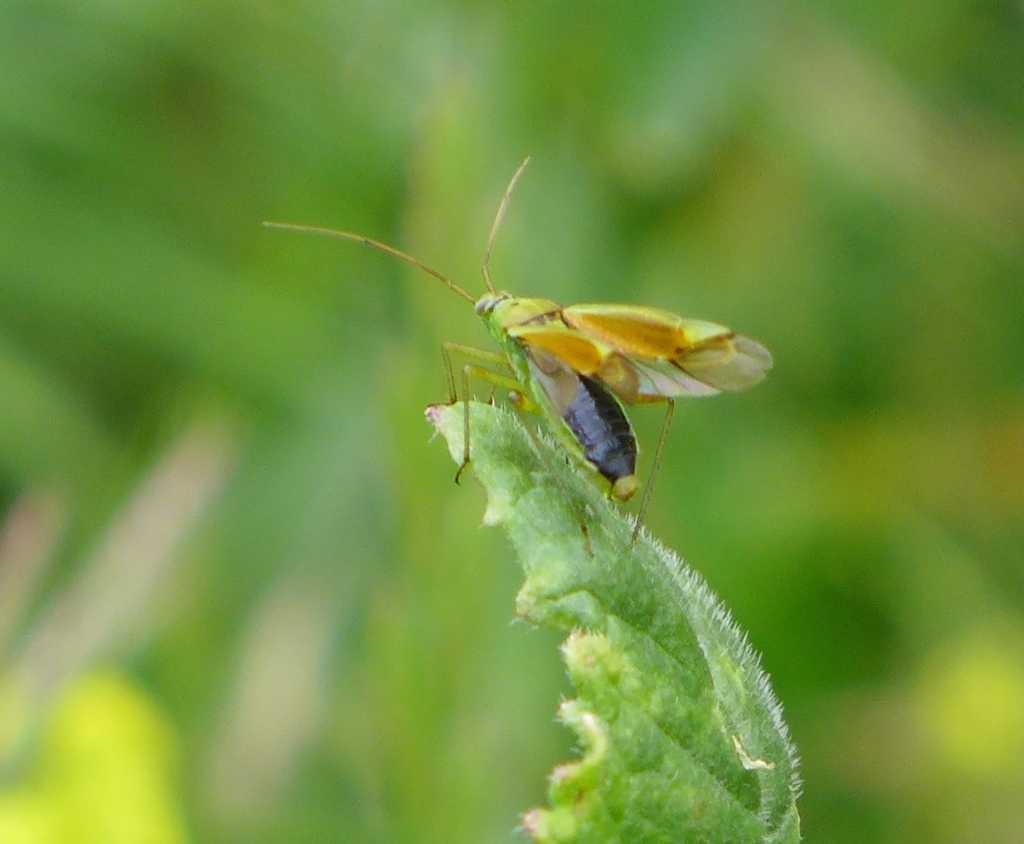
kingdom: Animalia
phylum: Arthropoda
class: Insecta
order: Hemiptera
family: Miridae
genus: Closterotomus
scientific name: Closterotomus norvegicus
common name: Plant bug
